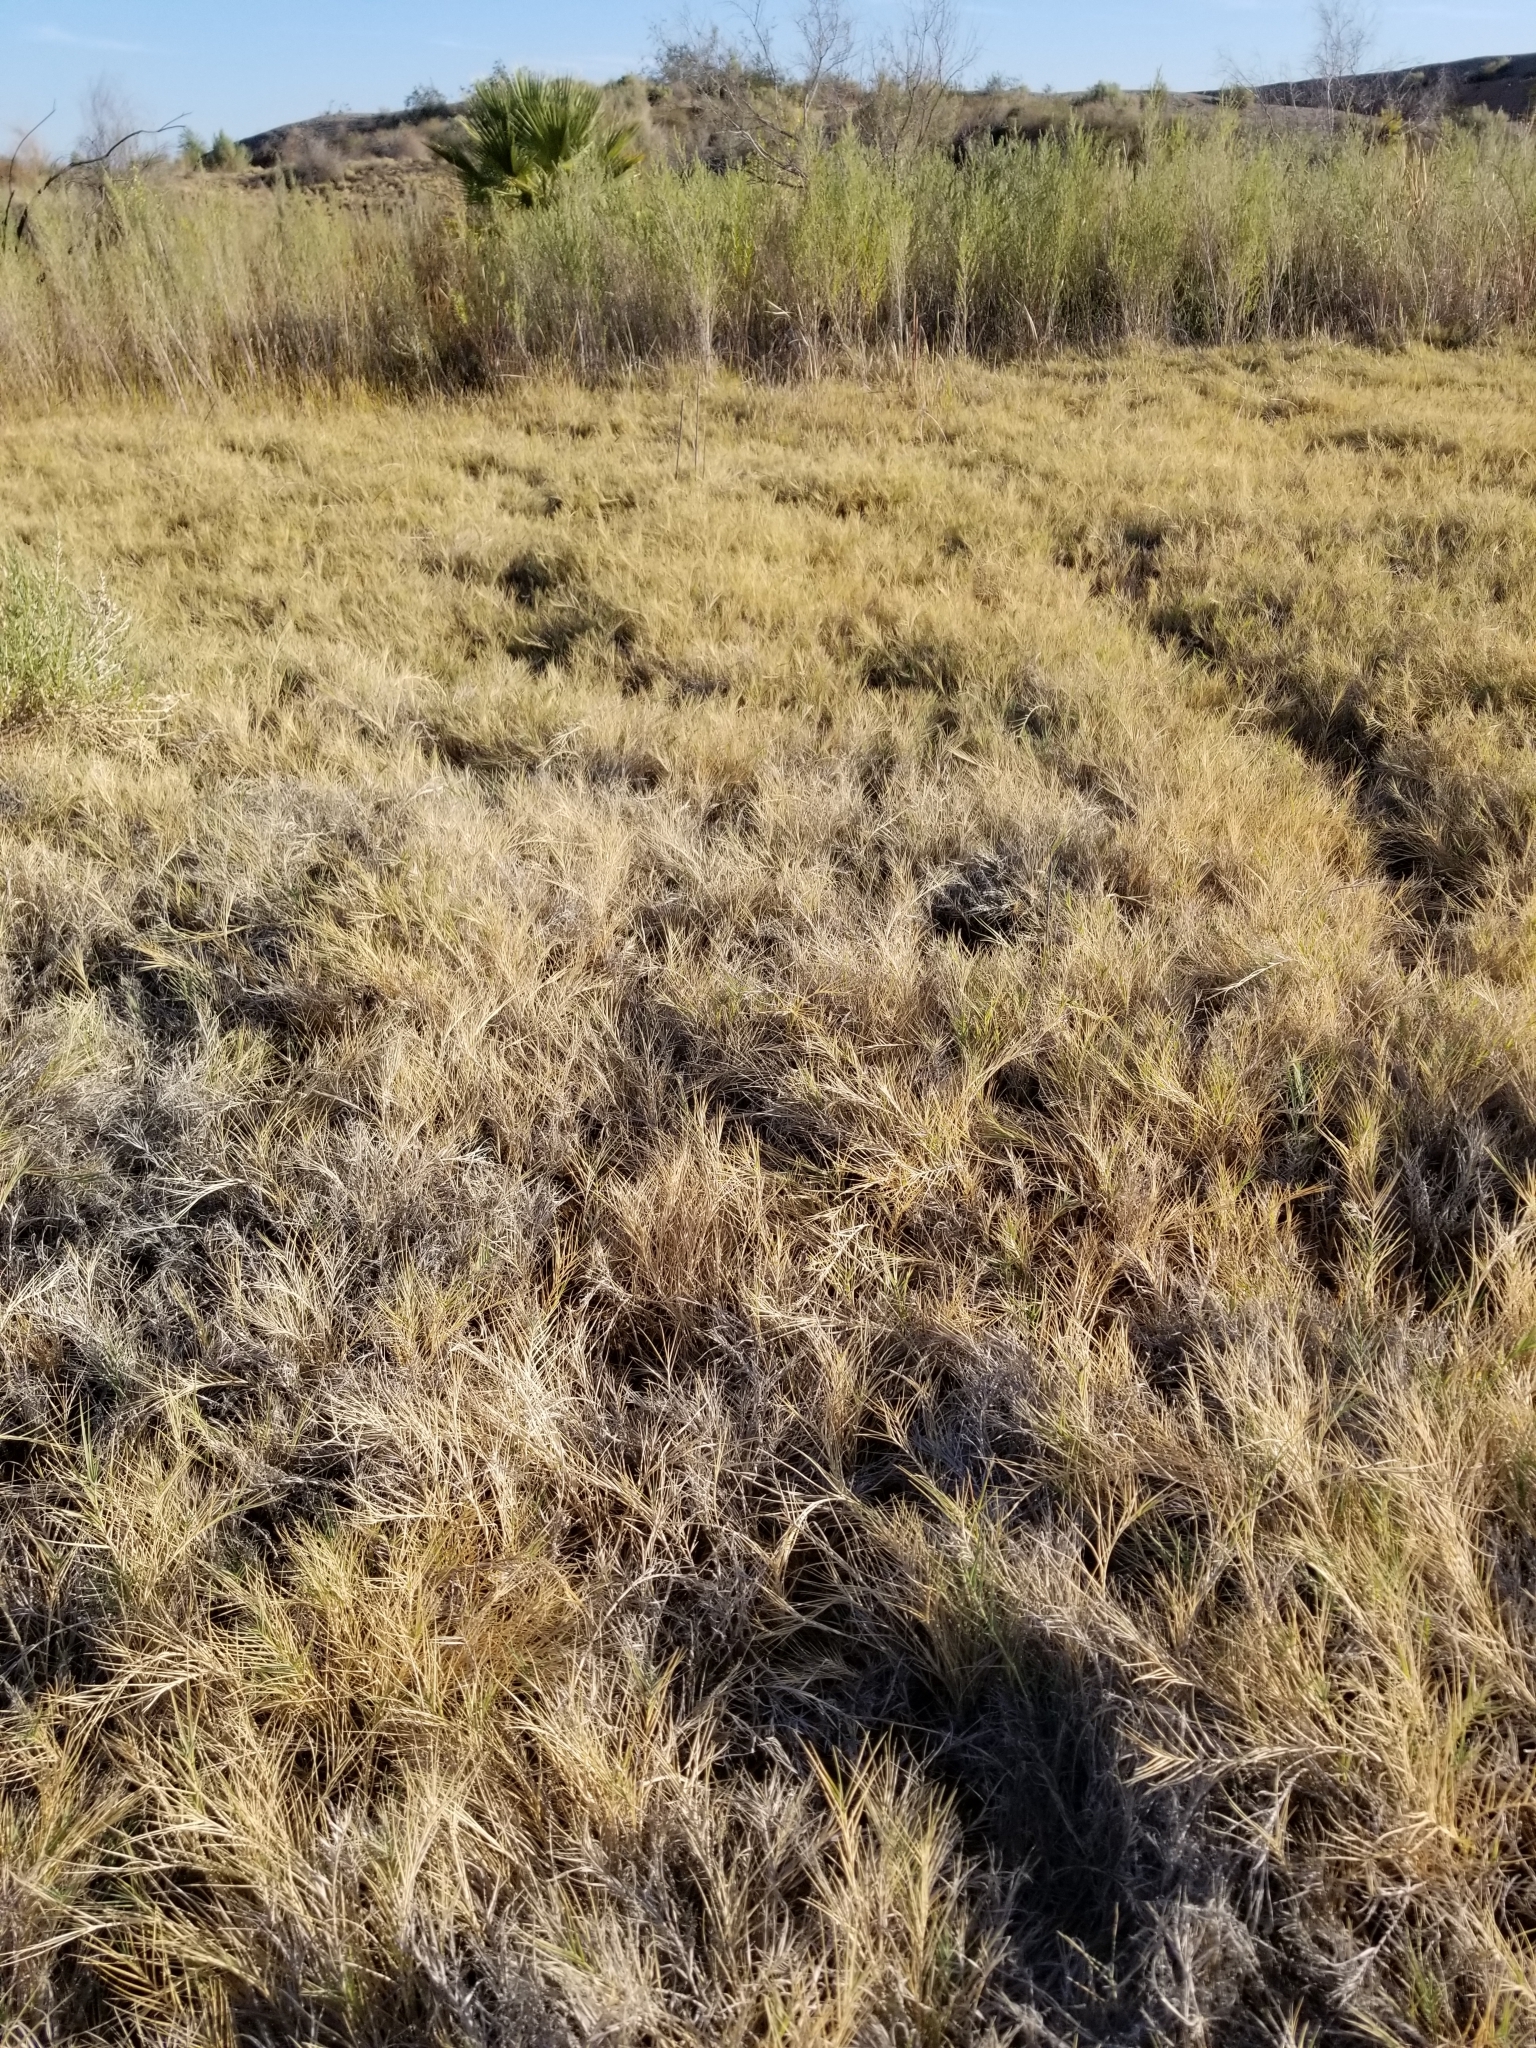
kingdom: Plantae
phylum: Tracheophyta
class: Liliopsida
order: Poales
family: Poaceae
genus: Distichlis
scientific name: Distichlis spicata
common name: Saltgrass
